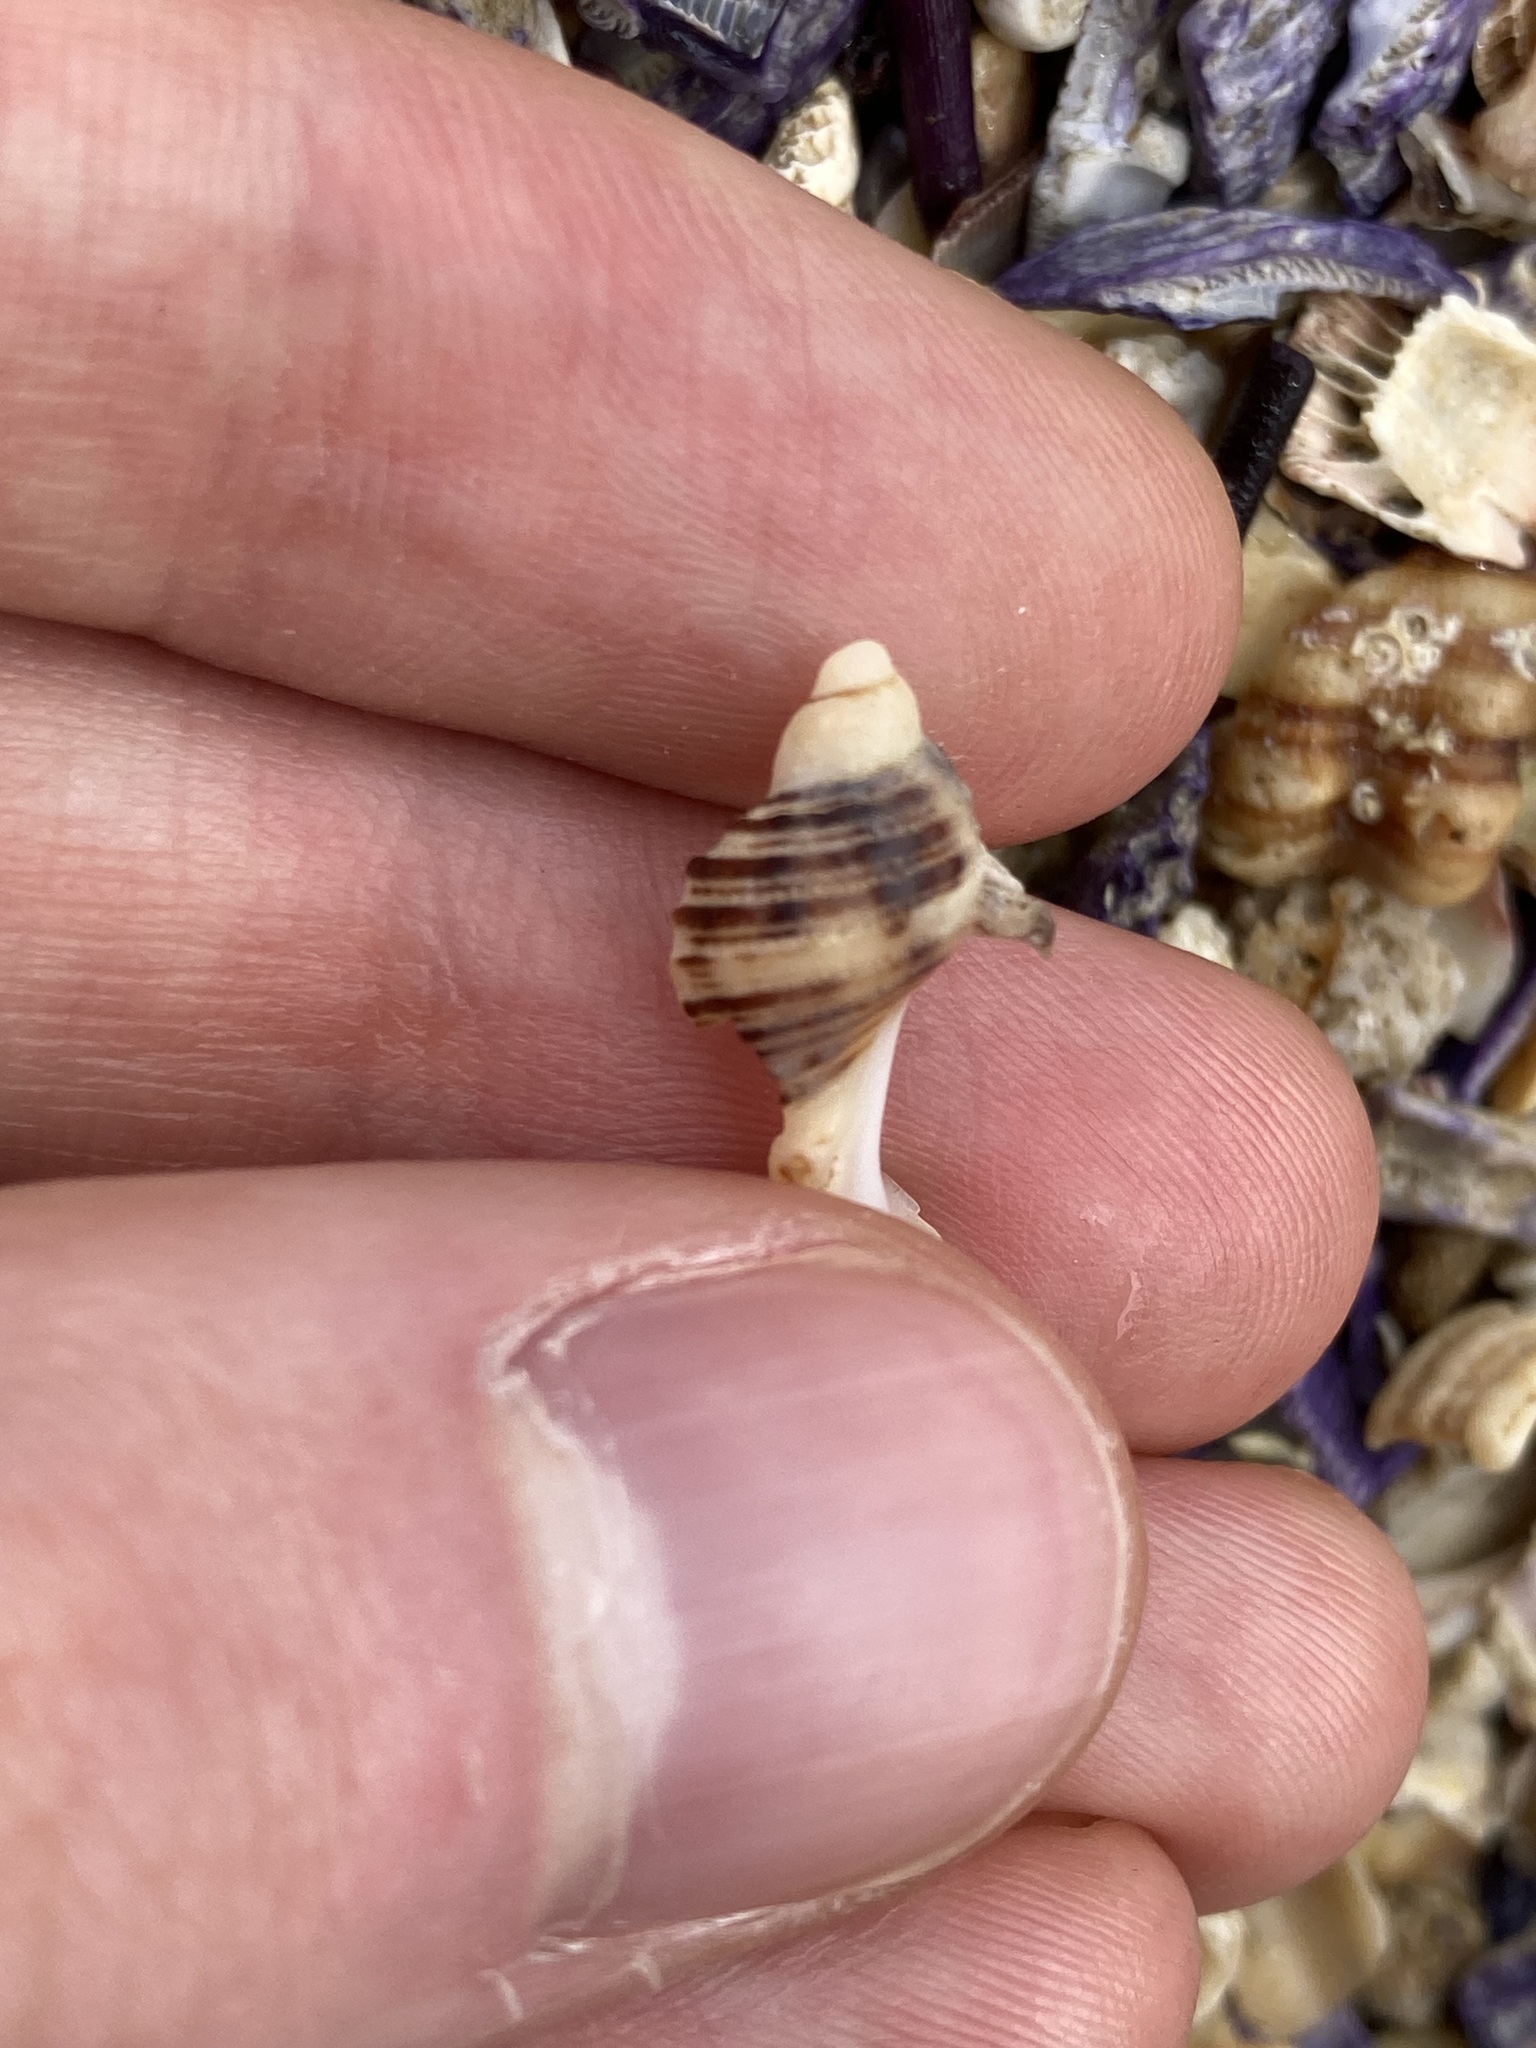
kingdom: Animalia
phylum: Mollusca
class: Gastropoda
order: Neogastropoda
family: Muricidae
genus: Dicathais
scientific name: Dicathais orbita
